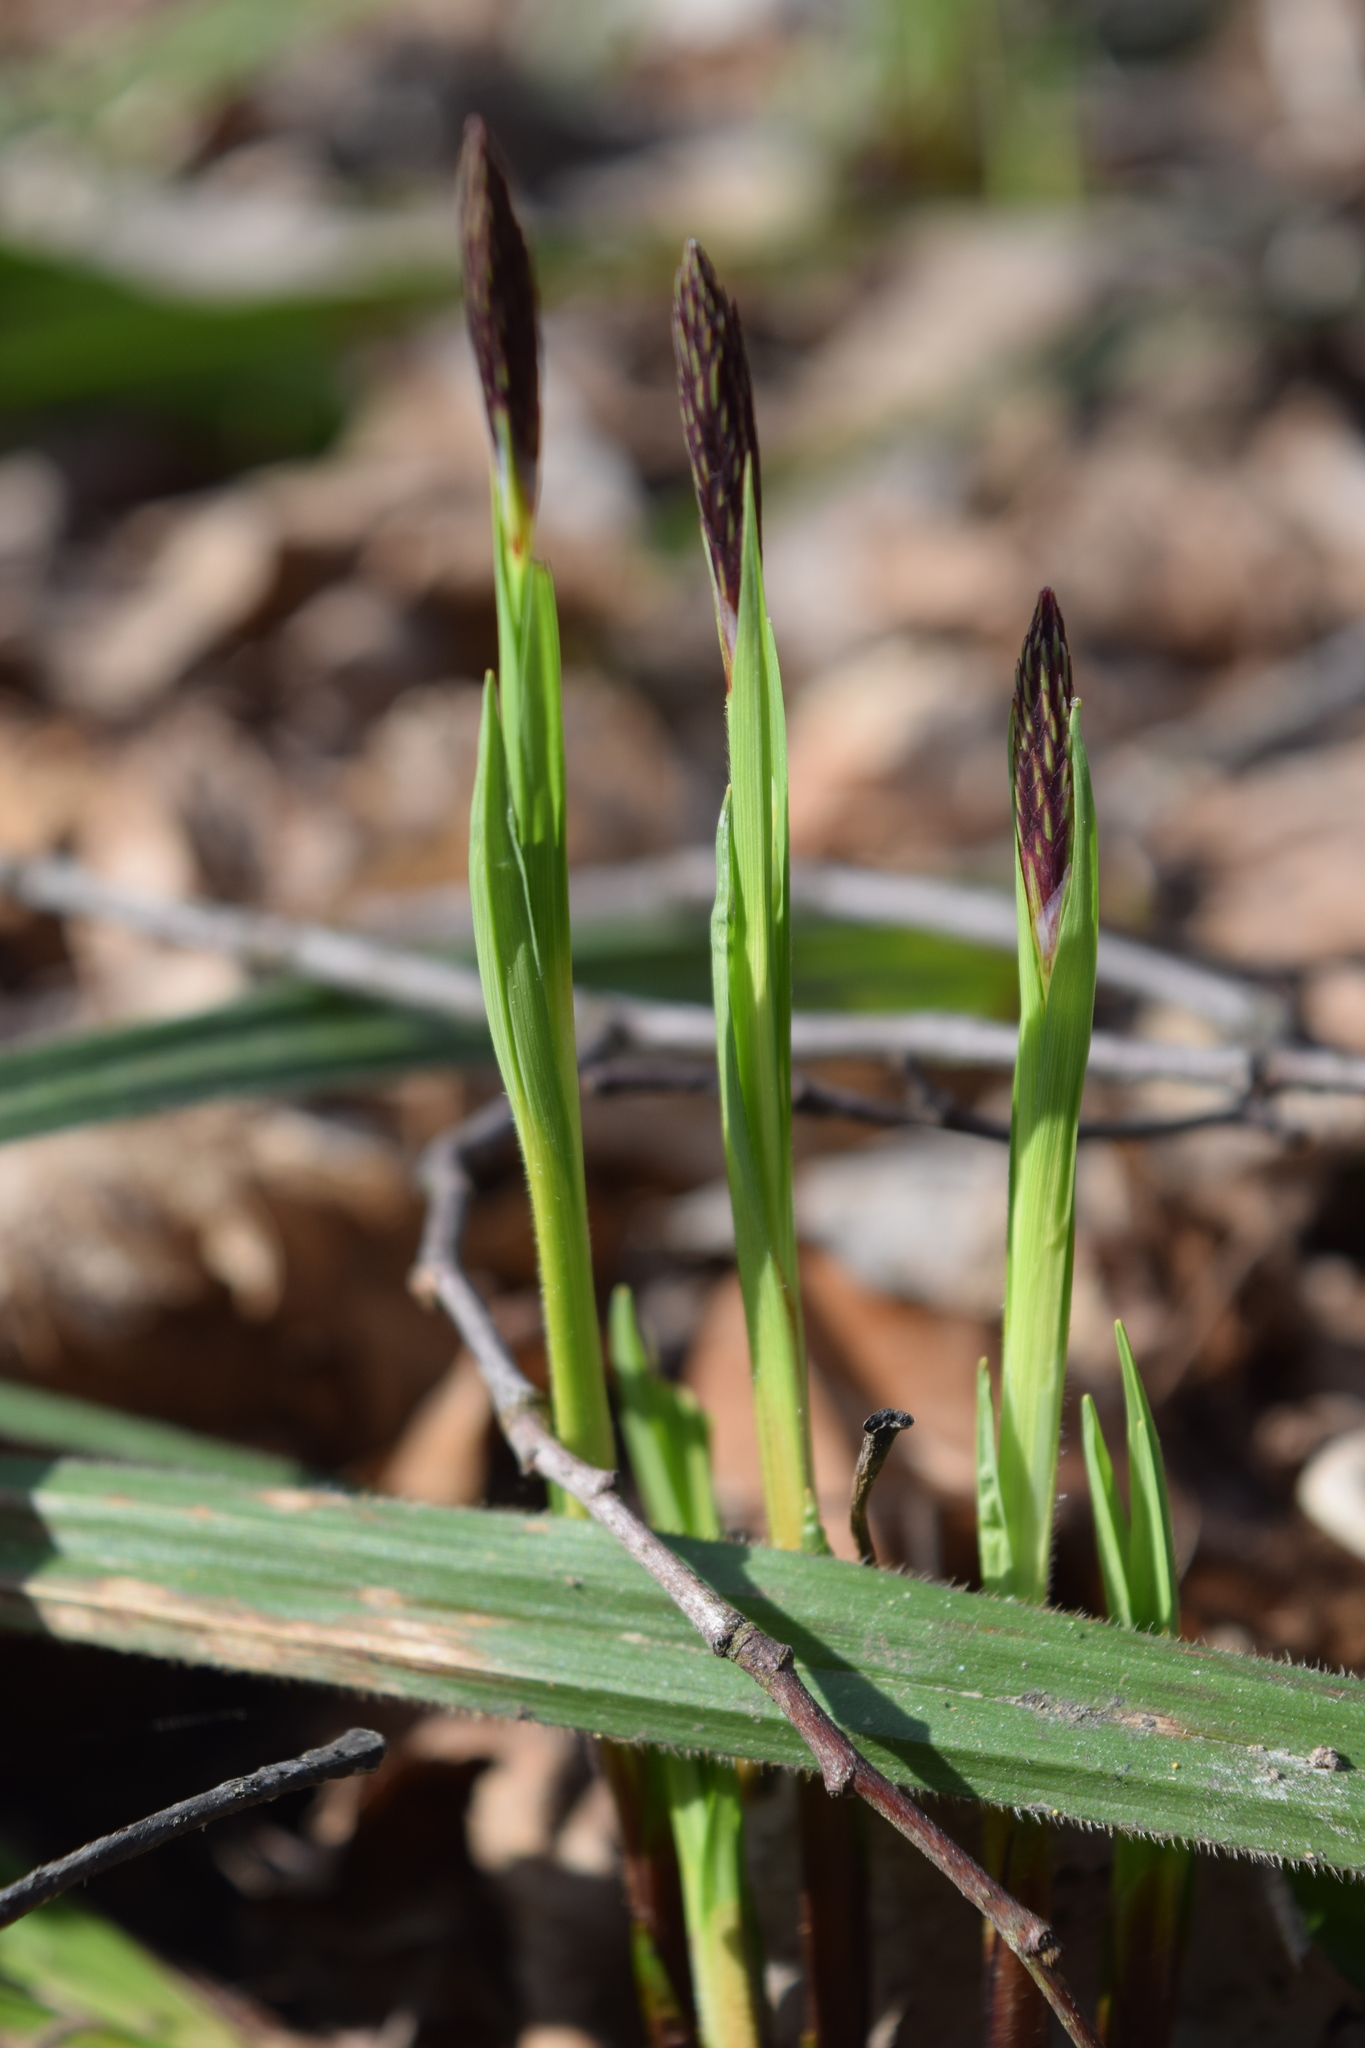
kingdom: Plantae
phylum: Tracheophyta
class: Liliopsida
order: Poales
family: Cyperaceae
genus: Carex
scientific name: Carex pilosa
